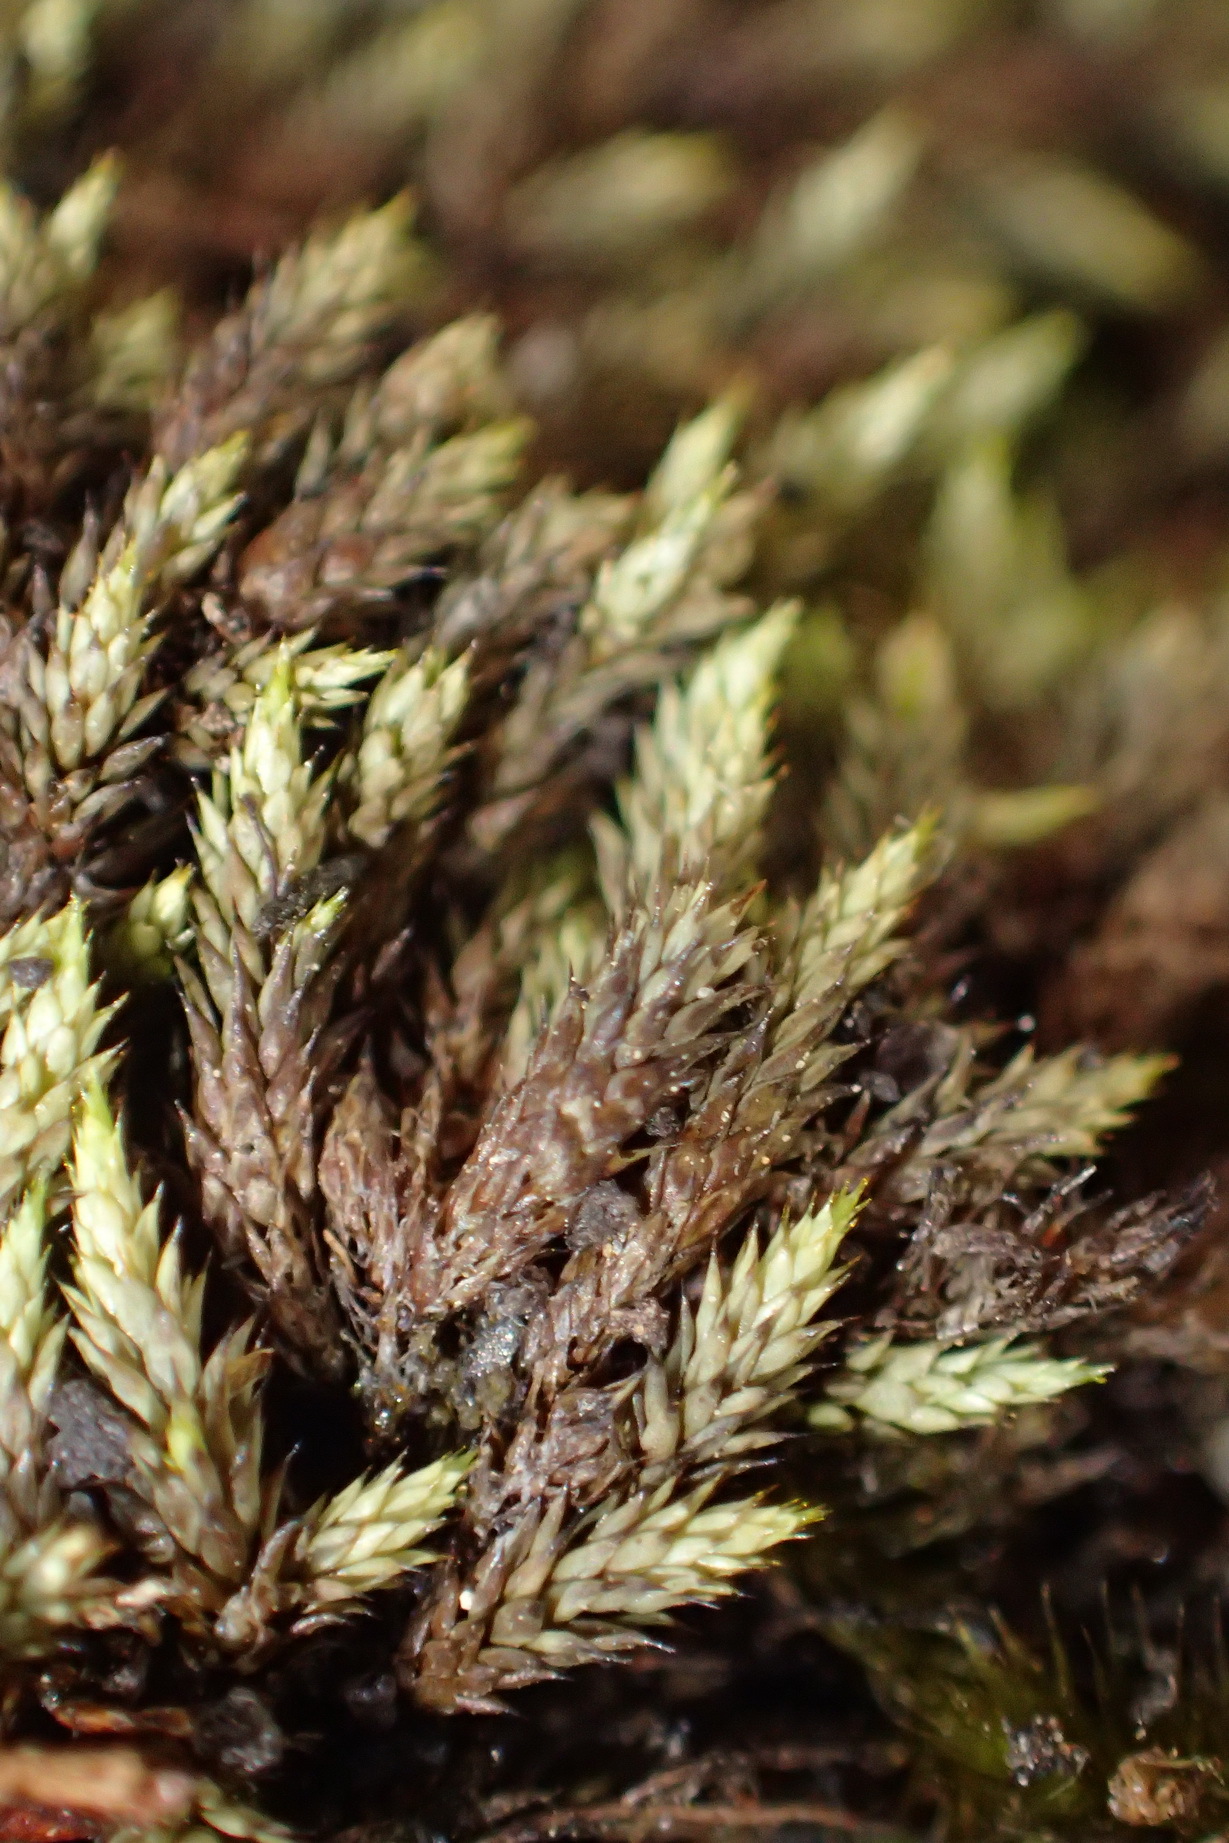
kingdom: Plantae
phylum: Bryophyta
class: Bryopsida
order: Hedwigiales
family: Hedwigiaceae
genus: Rhacocarpus
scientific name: Rhacocarpus purpurascens
